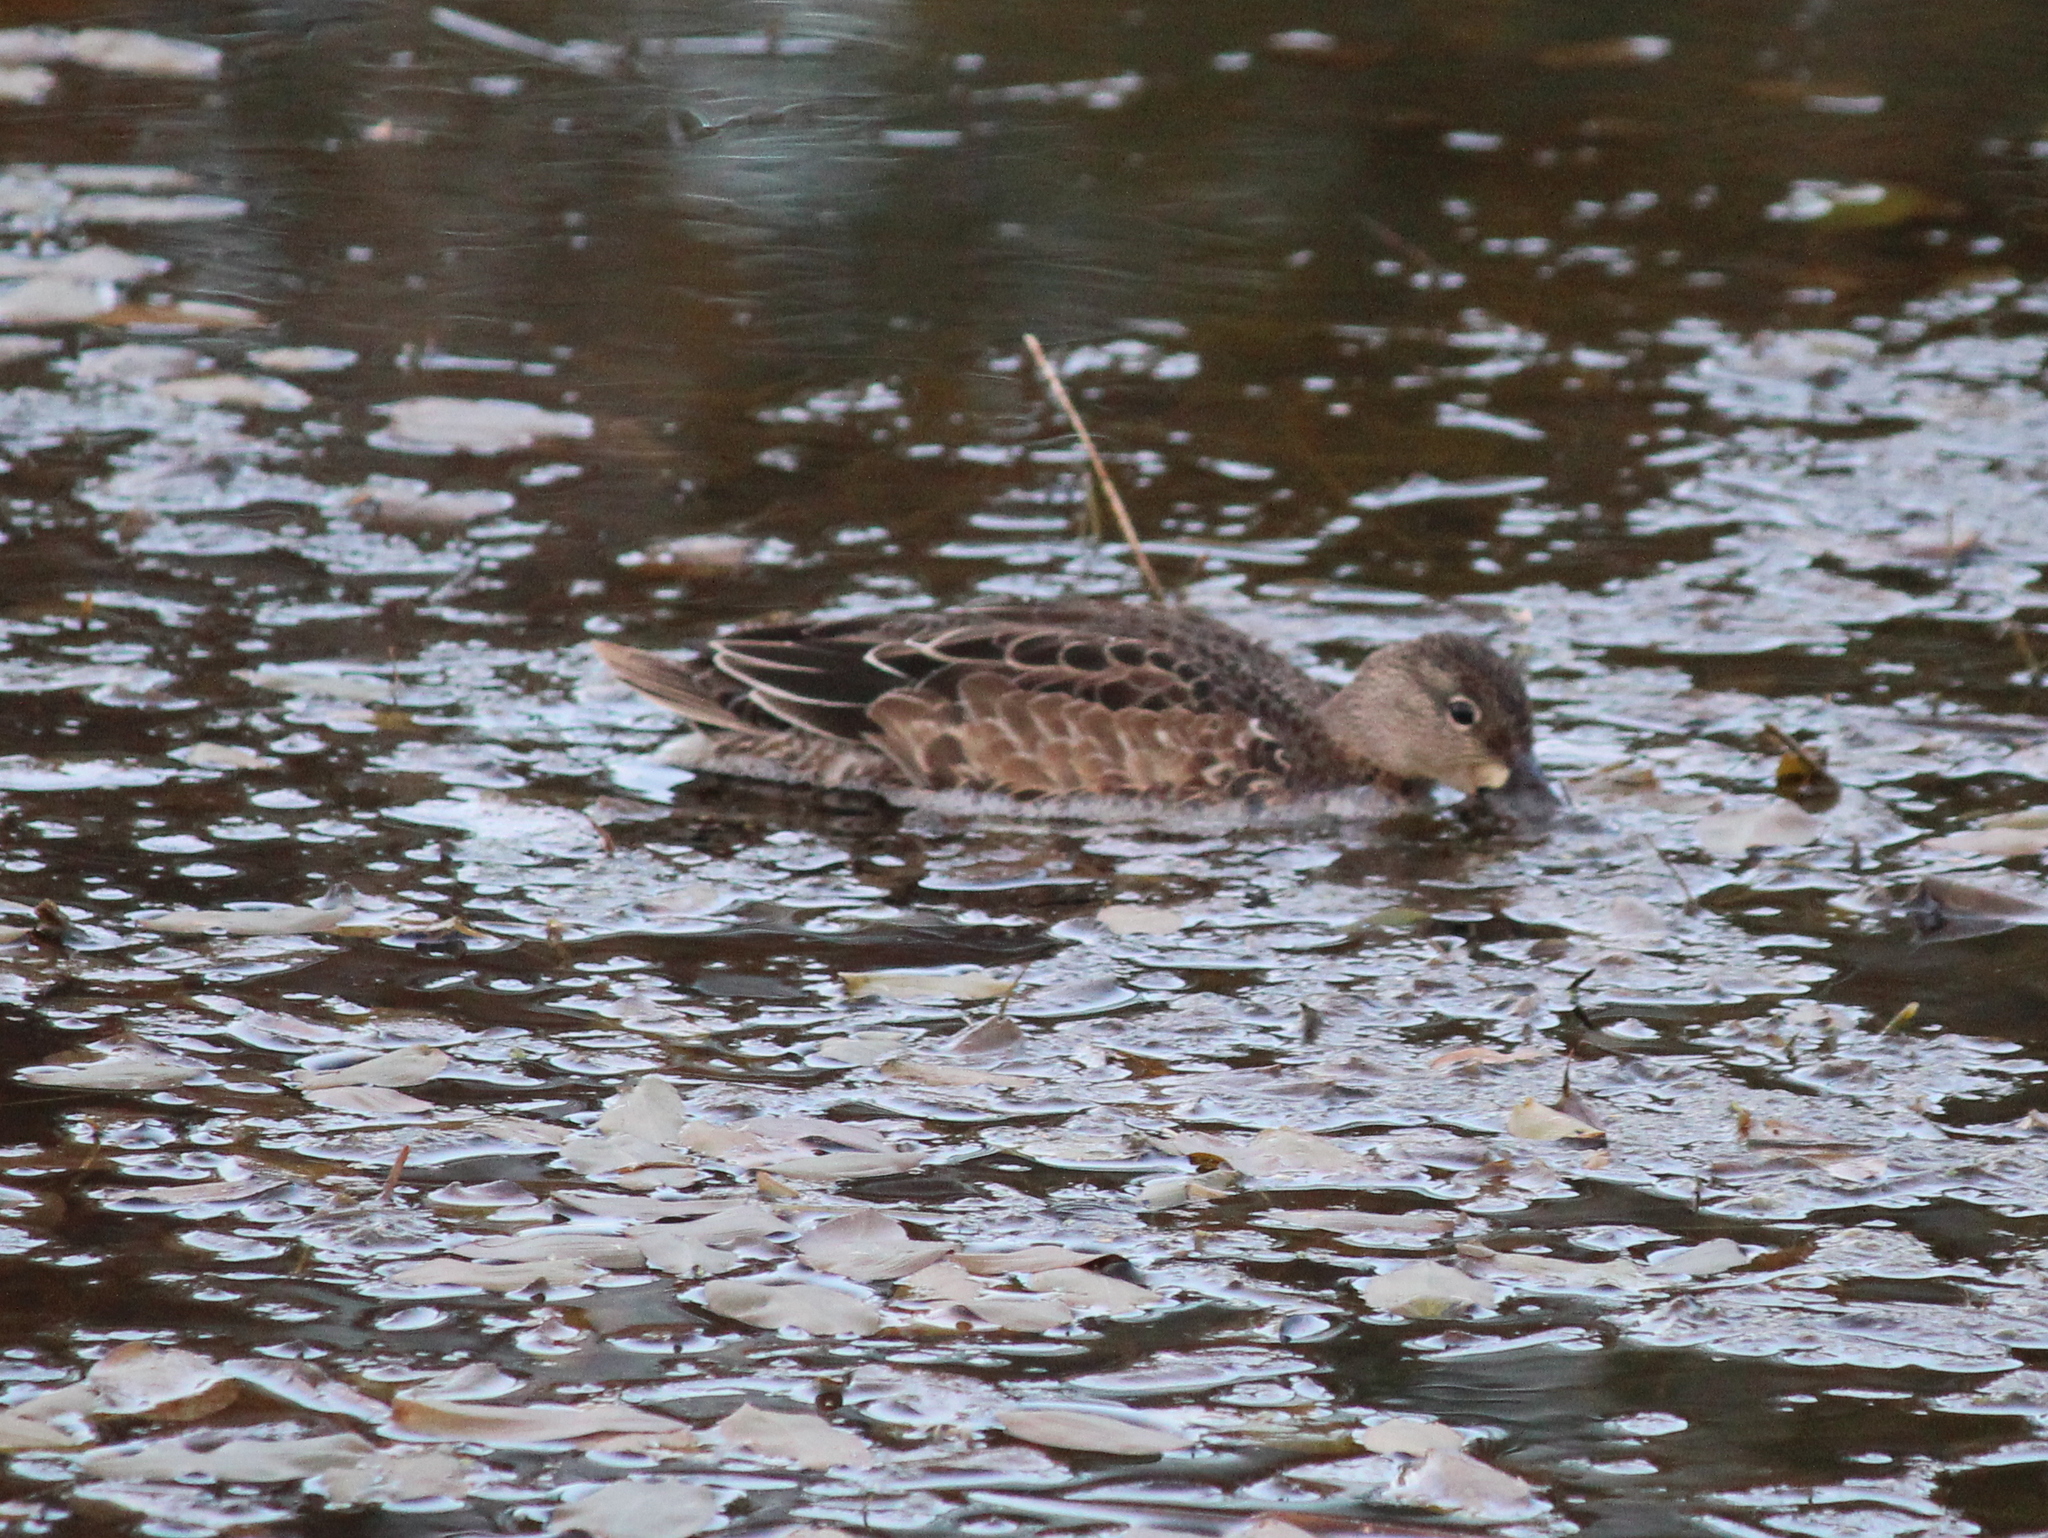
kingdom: Animalia
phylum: Chordata
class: Aves
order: Anseriformes
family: Anatidae
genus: Spatula
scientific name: Spatula discors
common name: Blue-winged teal
